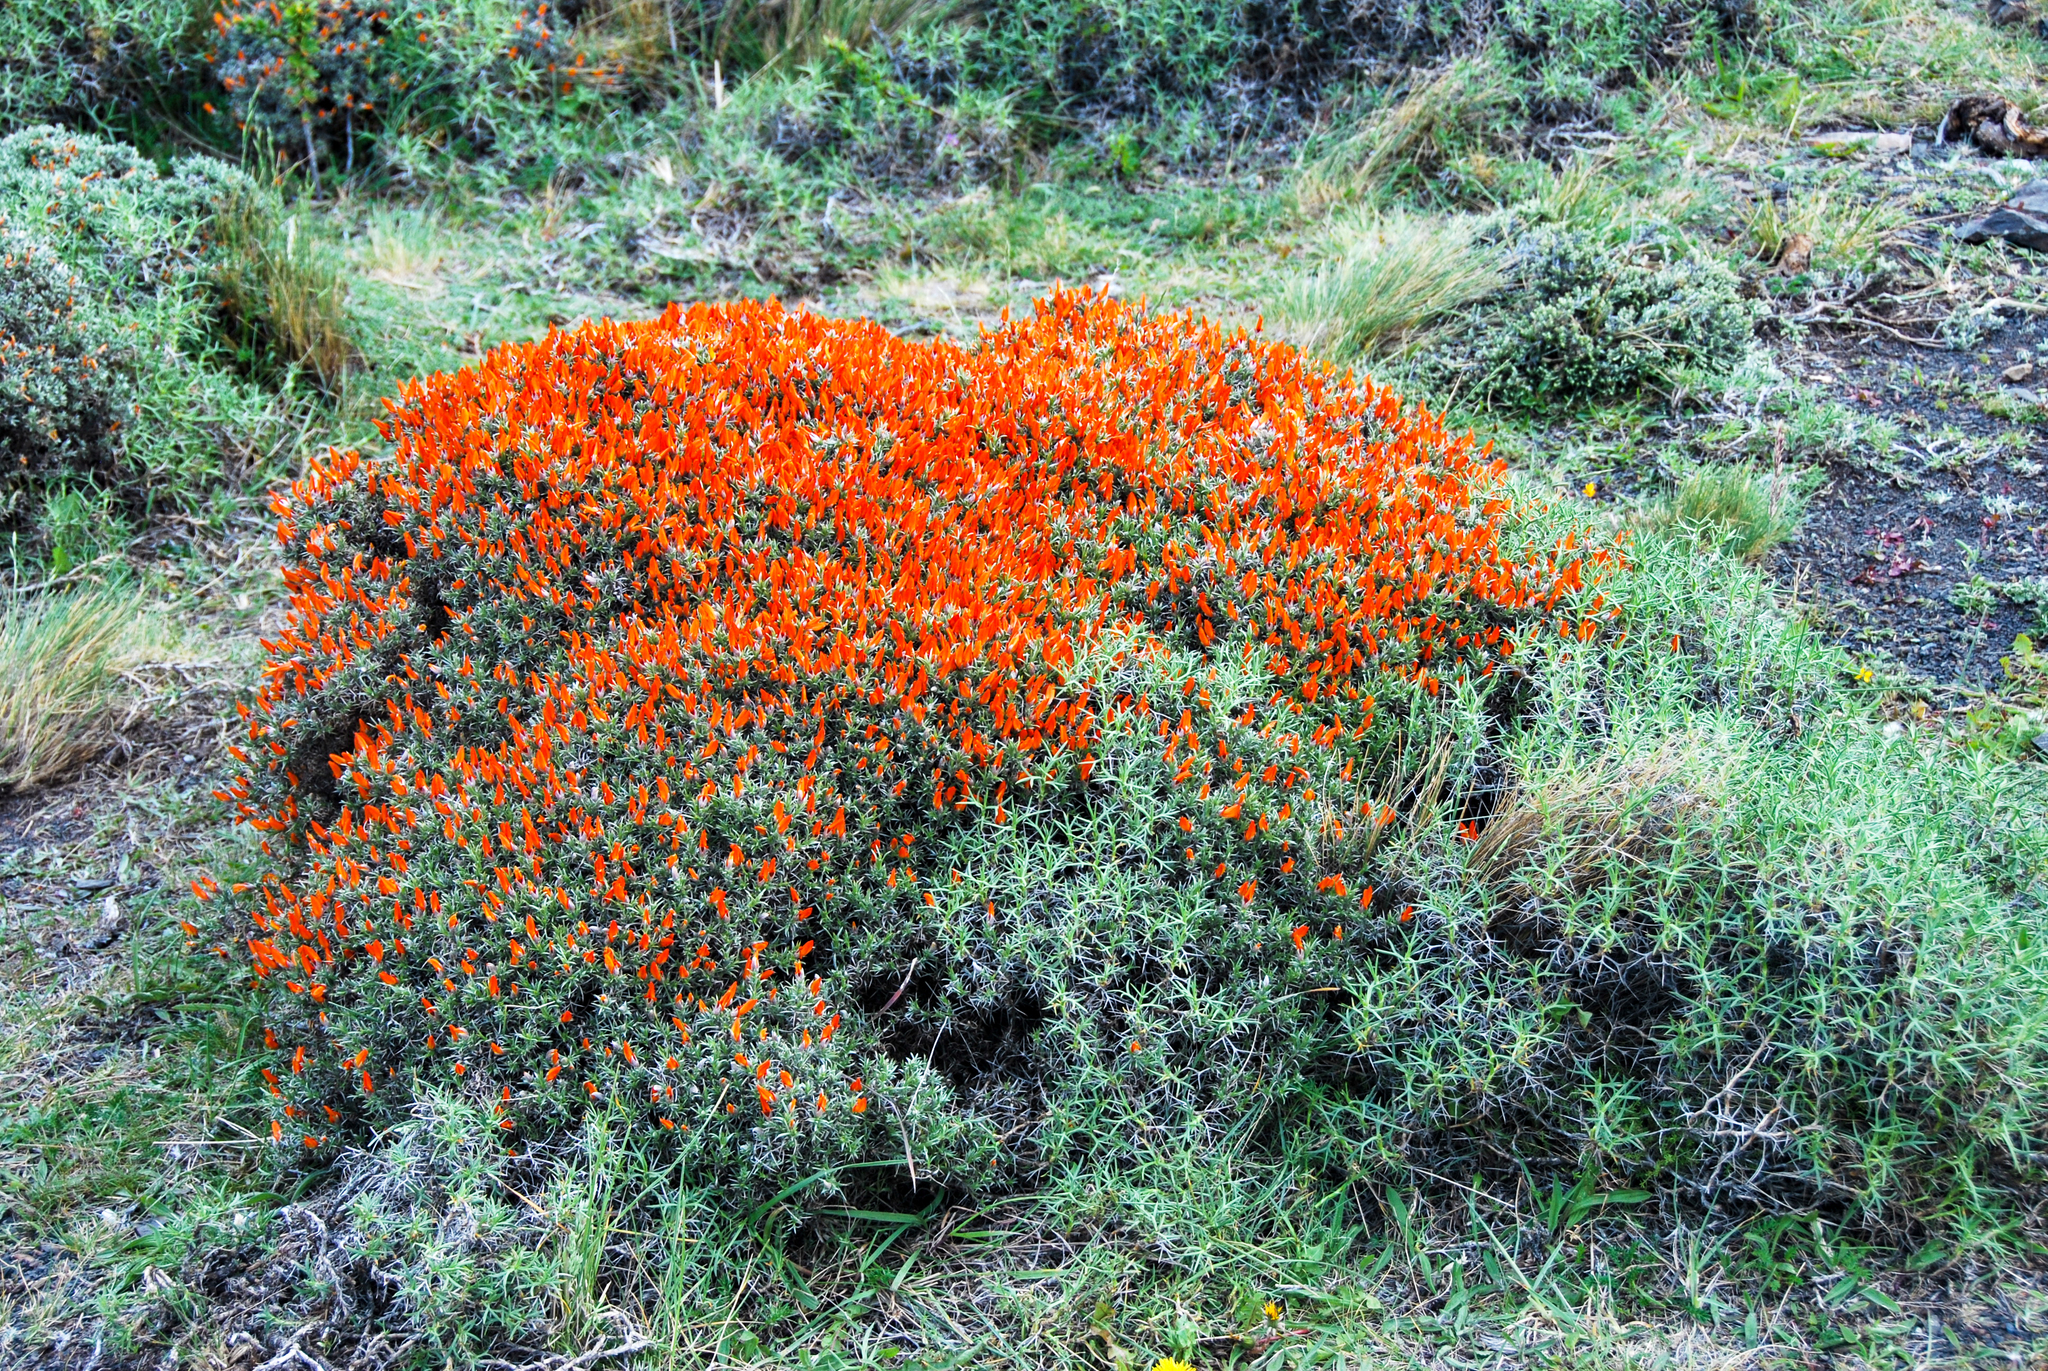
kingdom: Plantae
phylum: Tracheophyta
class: Magnoliopsida
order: Fabales
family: Fabaceae
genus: Anarthrophyllum
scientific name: Anarthrophyllum desideratum
